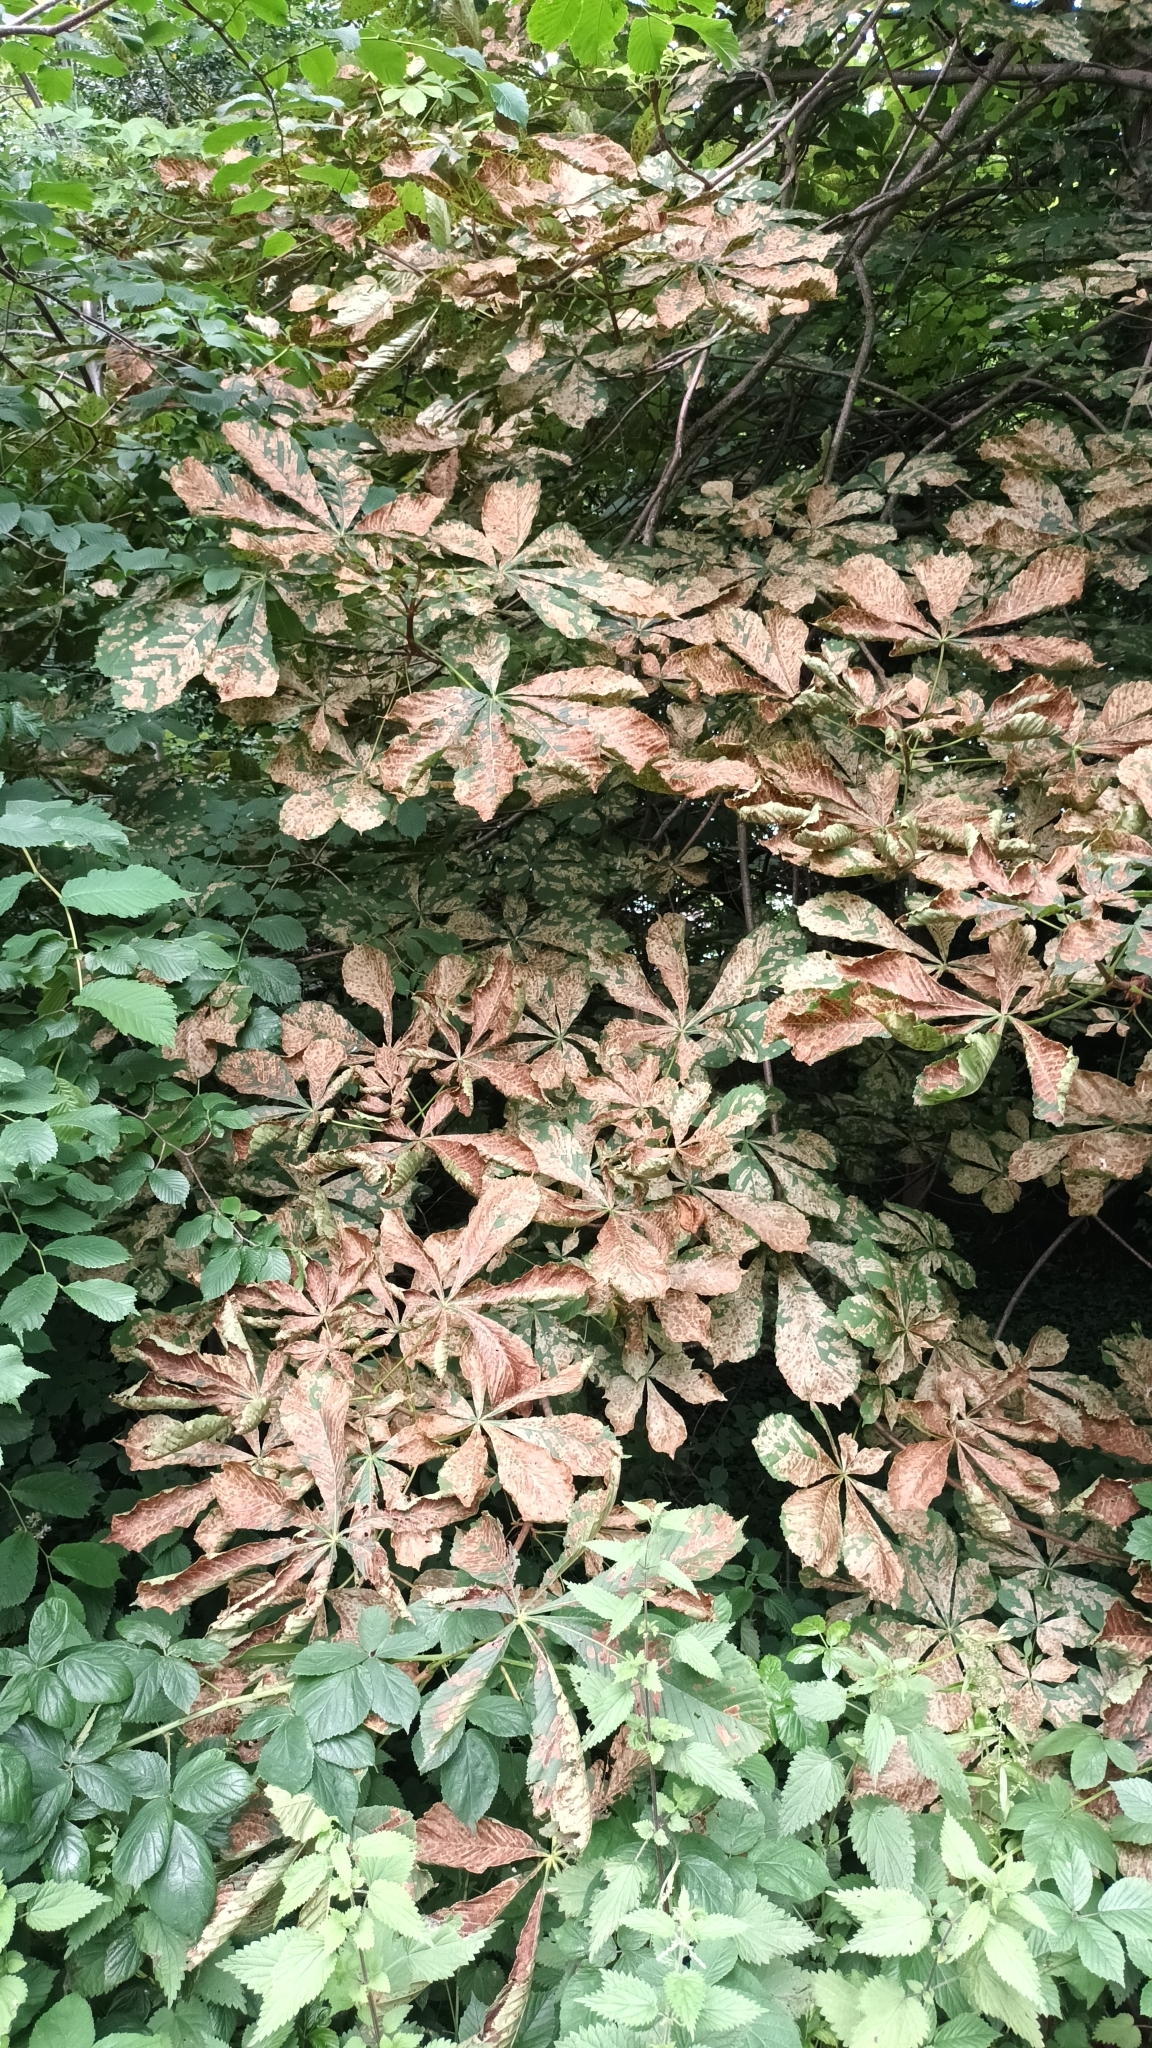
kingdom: Animalia
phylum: Arthropoda
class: Insecta
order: Lepidoptera
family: Gracillariidae
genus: Cameraria
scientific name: Cameraria ohridella
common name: Horse-chestnut leaf-miner
